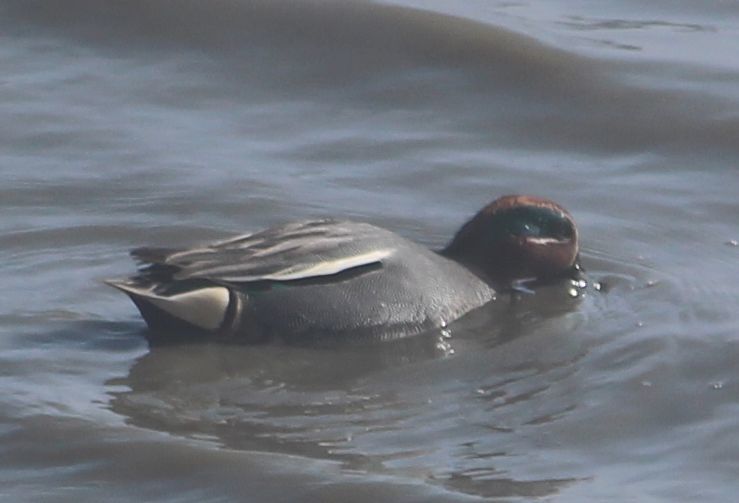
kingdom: Animalia
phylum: Chordata
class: Aves
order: Anseriformes
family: Anatidae
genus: Anas
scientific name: Anas crecca
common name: Eurasian teal
